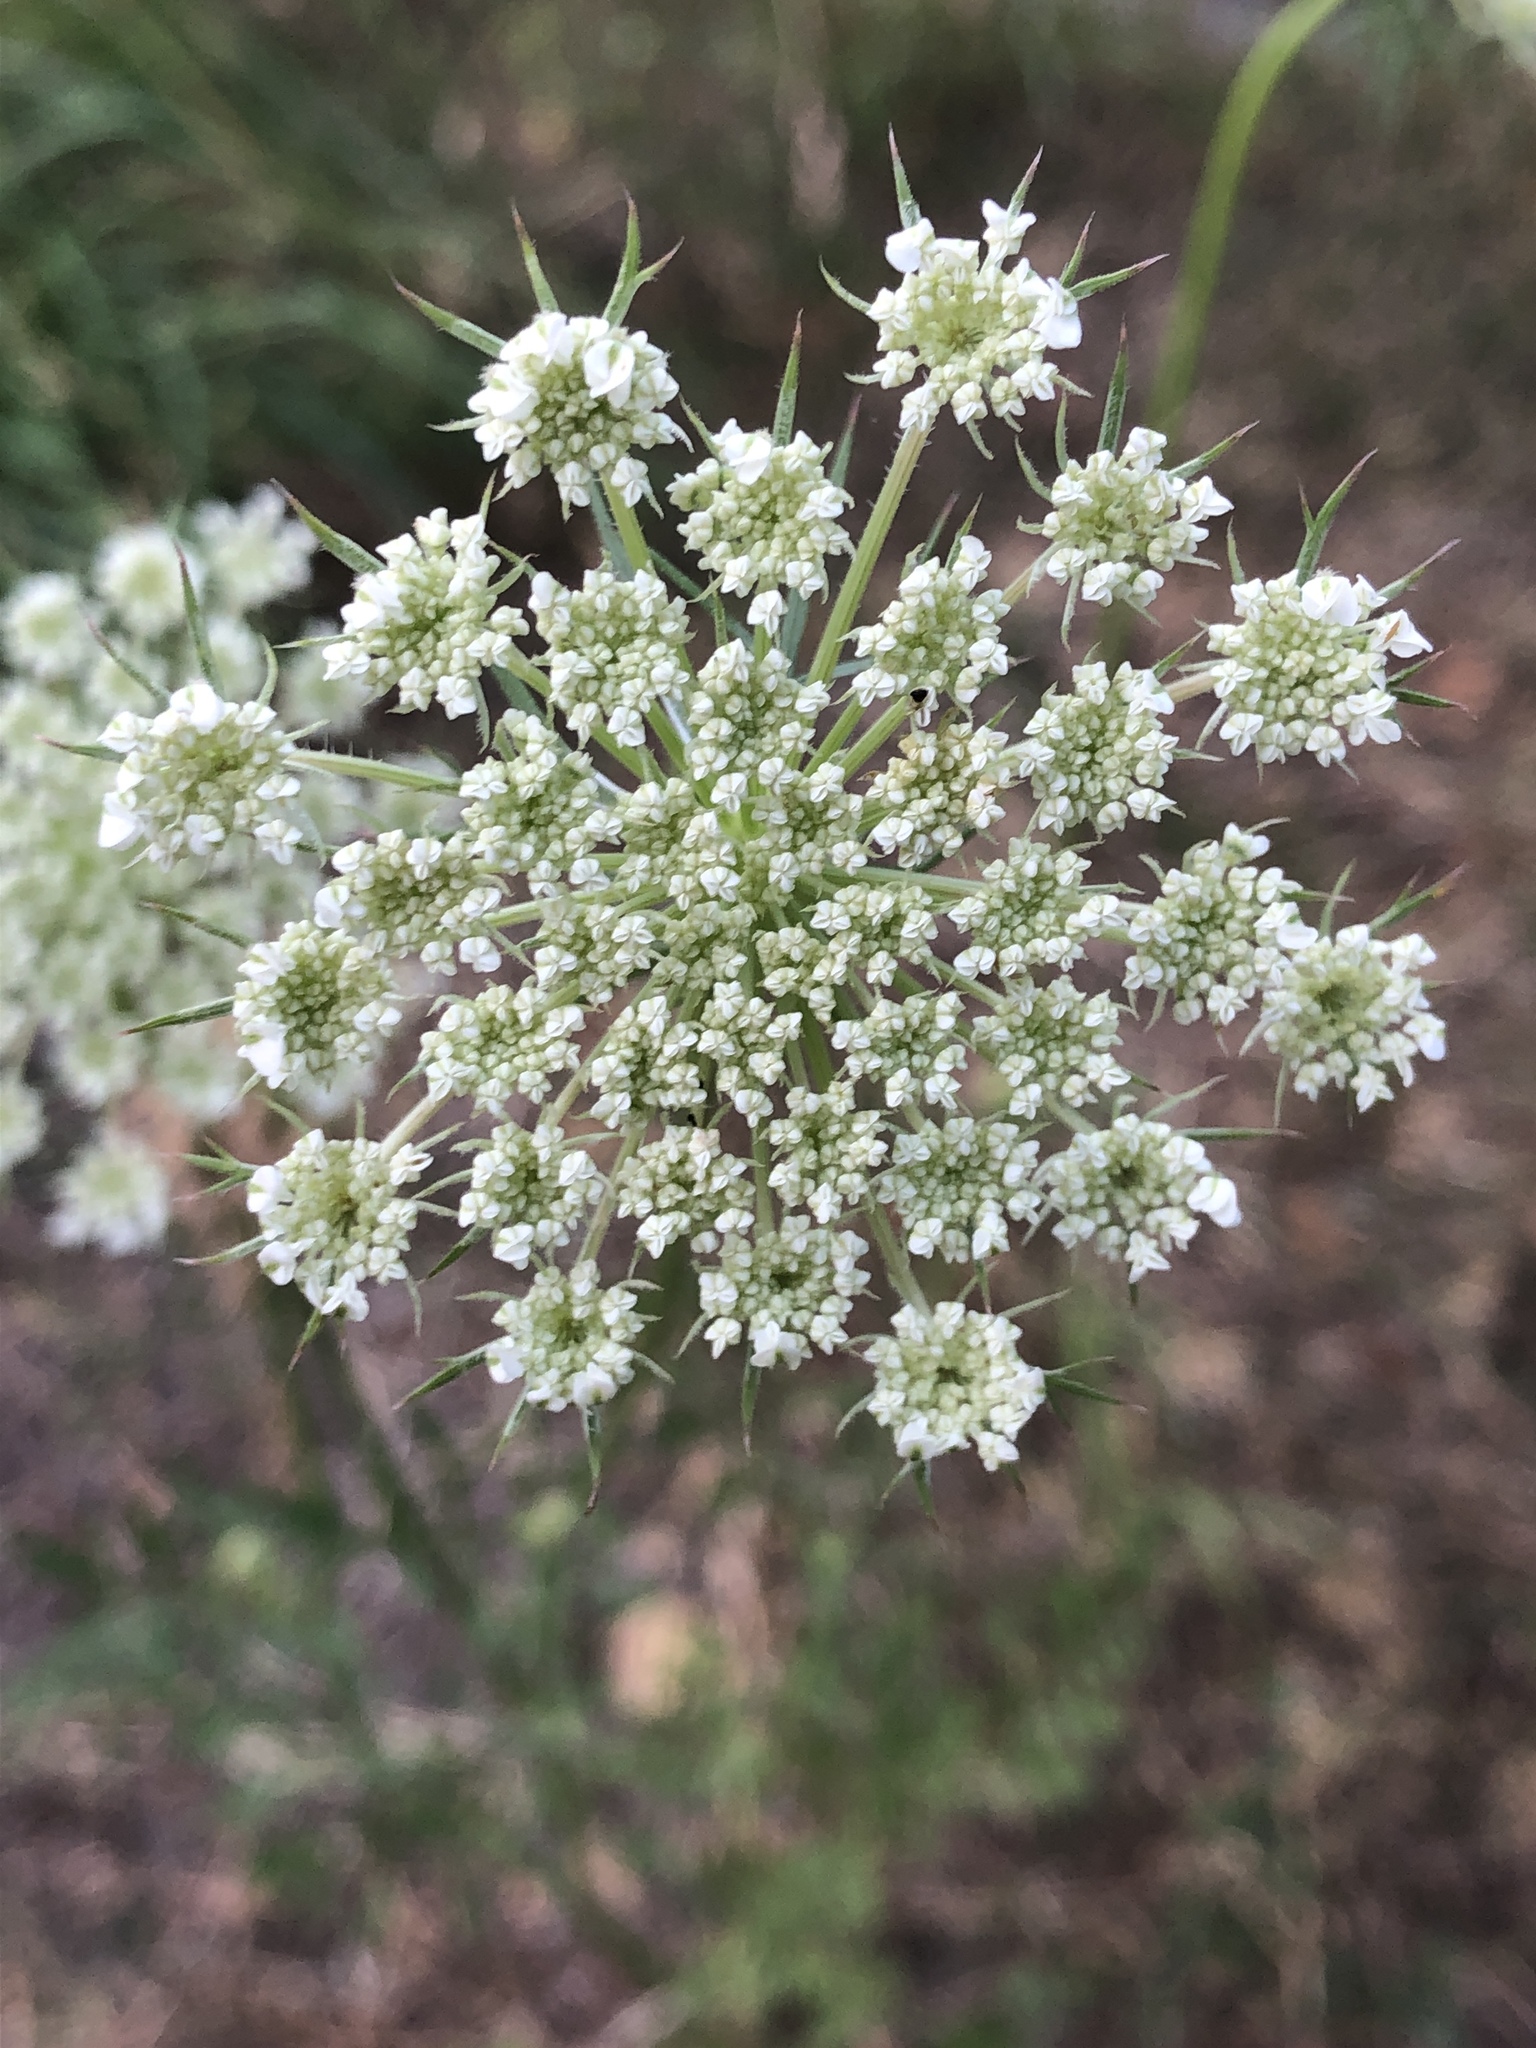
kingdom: Plantae
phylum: Tracheophyta
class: Magnoliopsida
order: Apiales
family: Apiaceae
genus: Daucus
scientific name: Daucus carota
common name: Wild carrot
